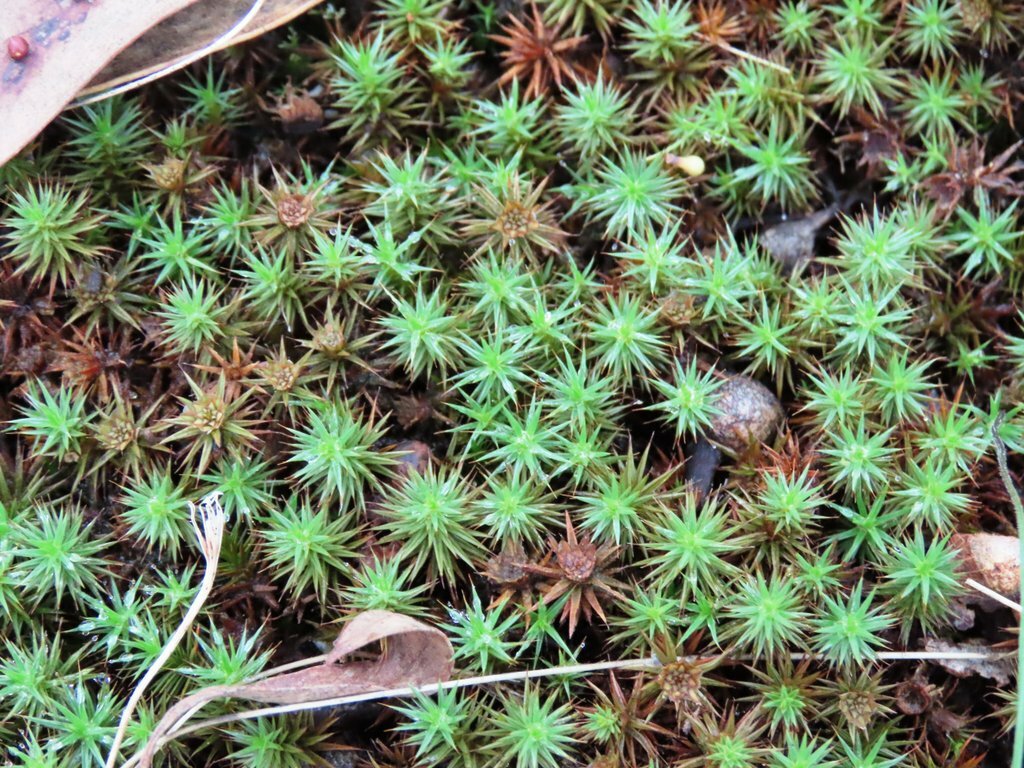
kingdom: Plantae
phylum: Bryophyta
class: Polytrichopsida
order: Polytrichales
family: Polytrichaceae
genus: Polytrichum
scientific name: Polytrichum juniperinum
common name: Juniper haircap moss
